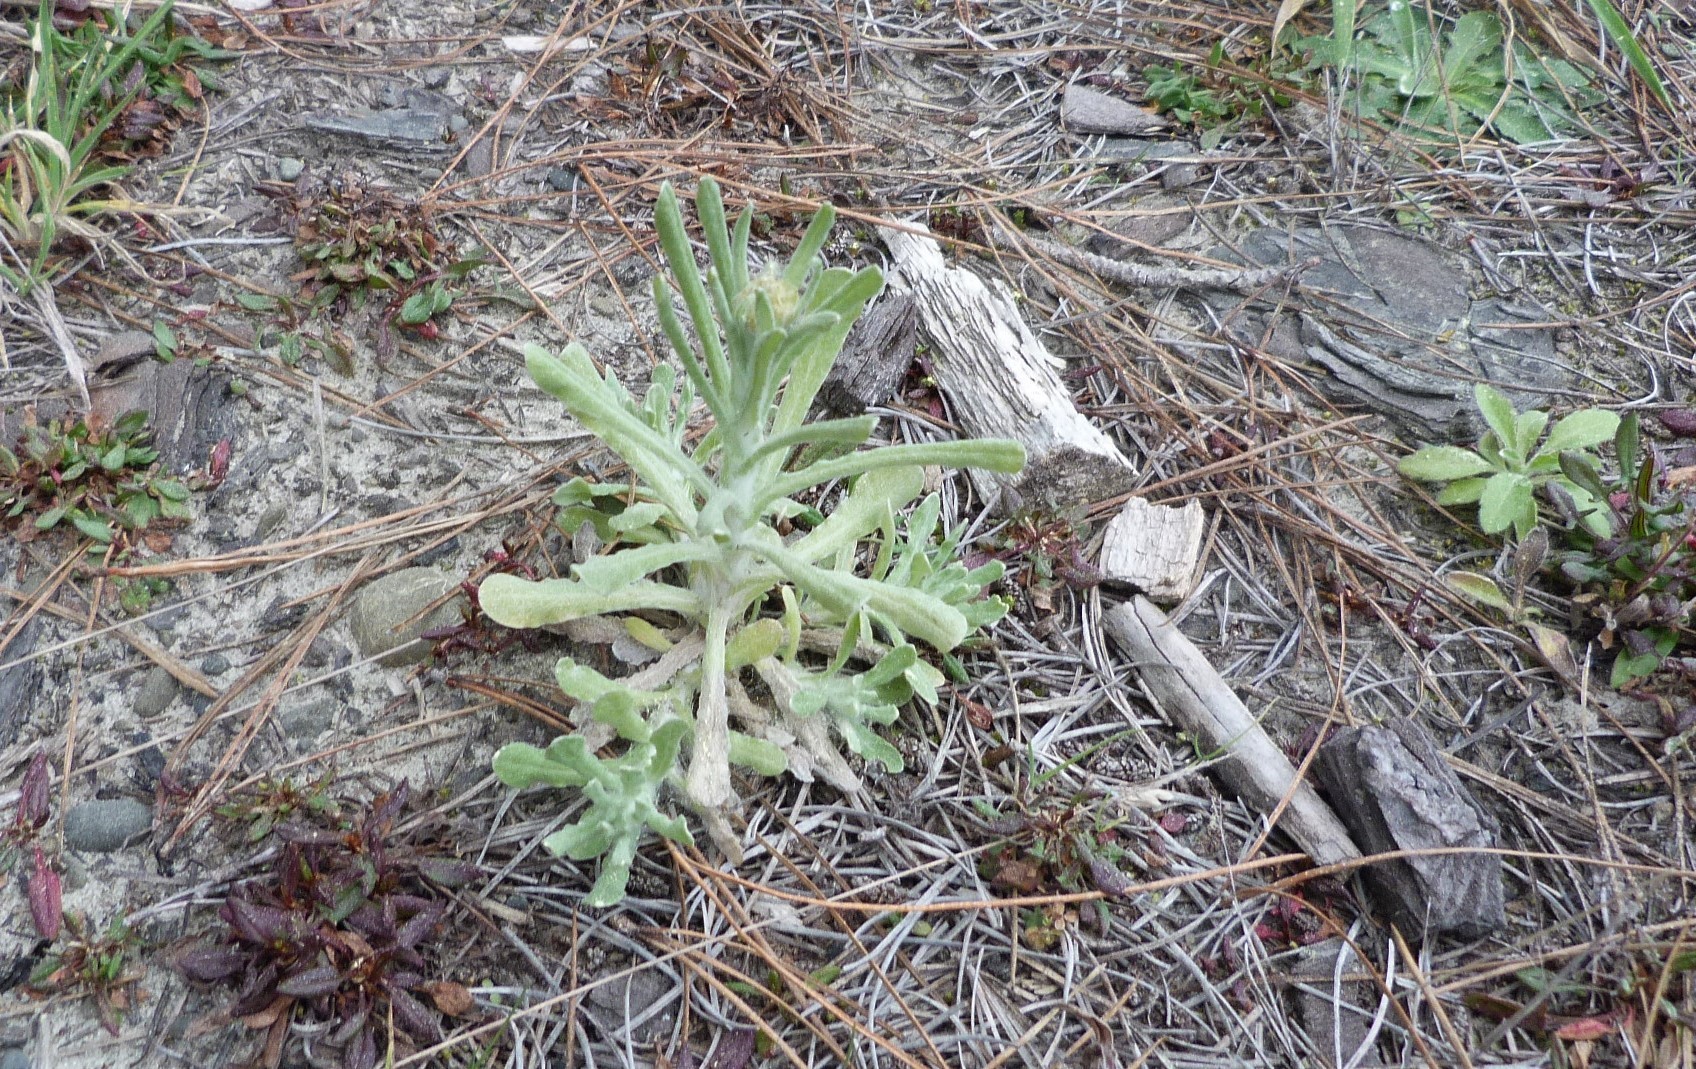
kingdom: Plantae
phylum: Tracheophyta
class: Magnoliopsida
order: Asterales
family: Asteraceae
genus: Helichrysum
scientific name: Helichrysum luteoalbum
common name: Daisy
